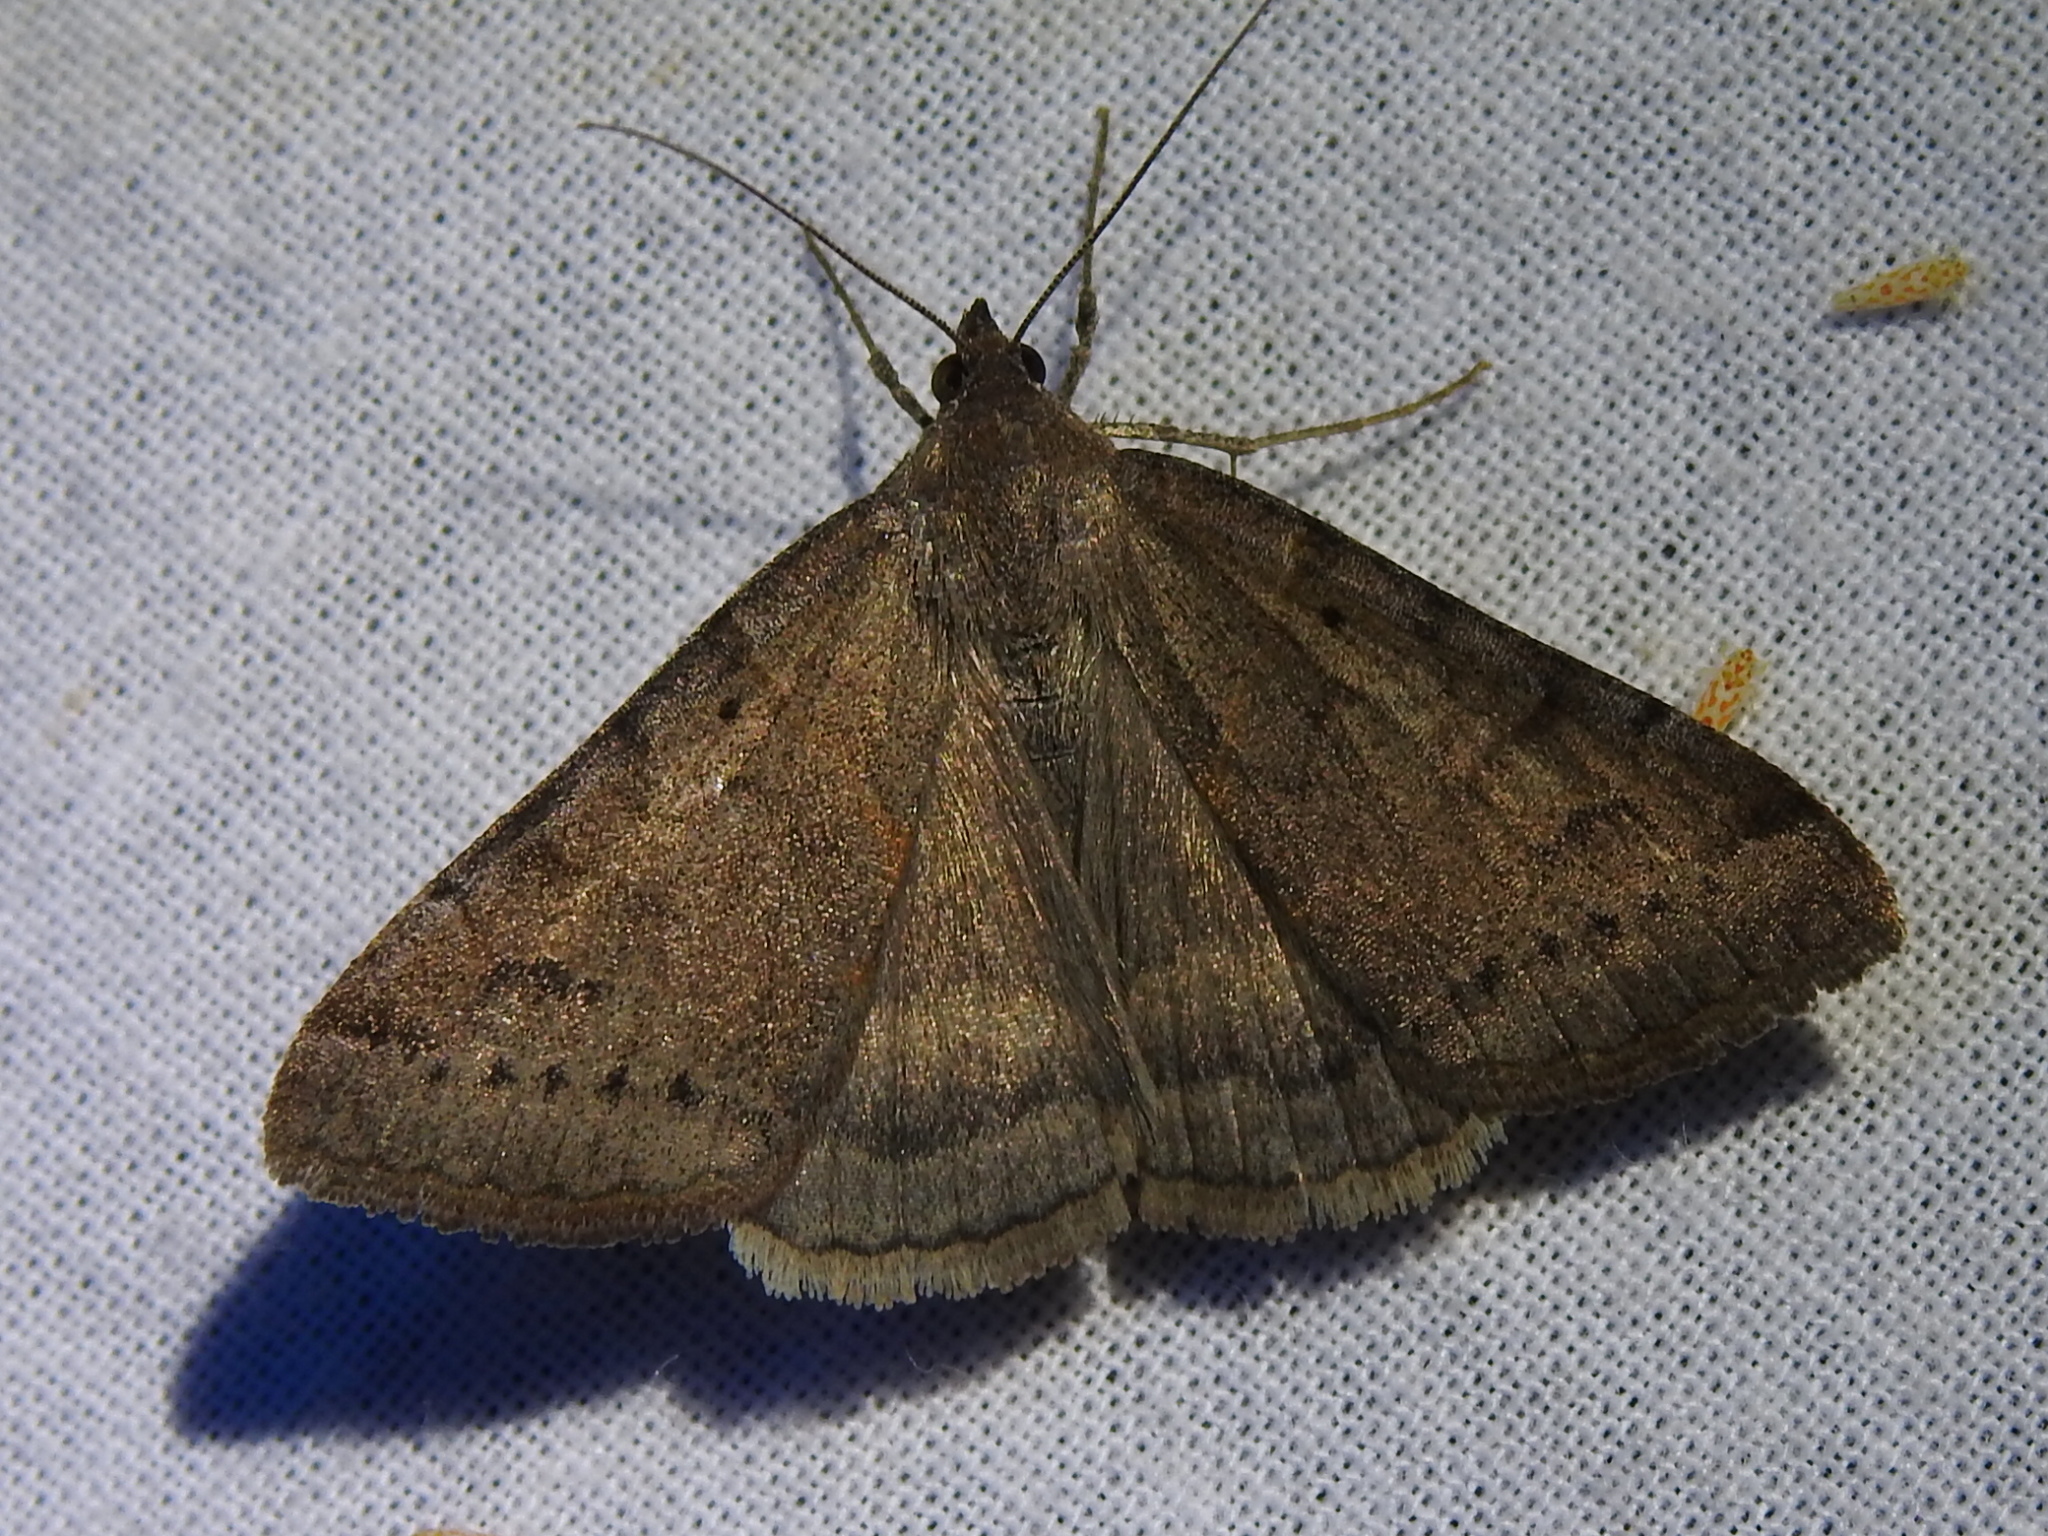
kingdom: Animalia
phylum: Arthropoda
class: Insecta
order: Lepidoptera
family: Erebidae
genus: Caenurgina
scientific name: Caenurgina erechtea
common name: Forage looper moth
